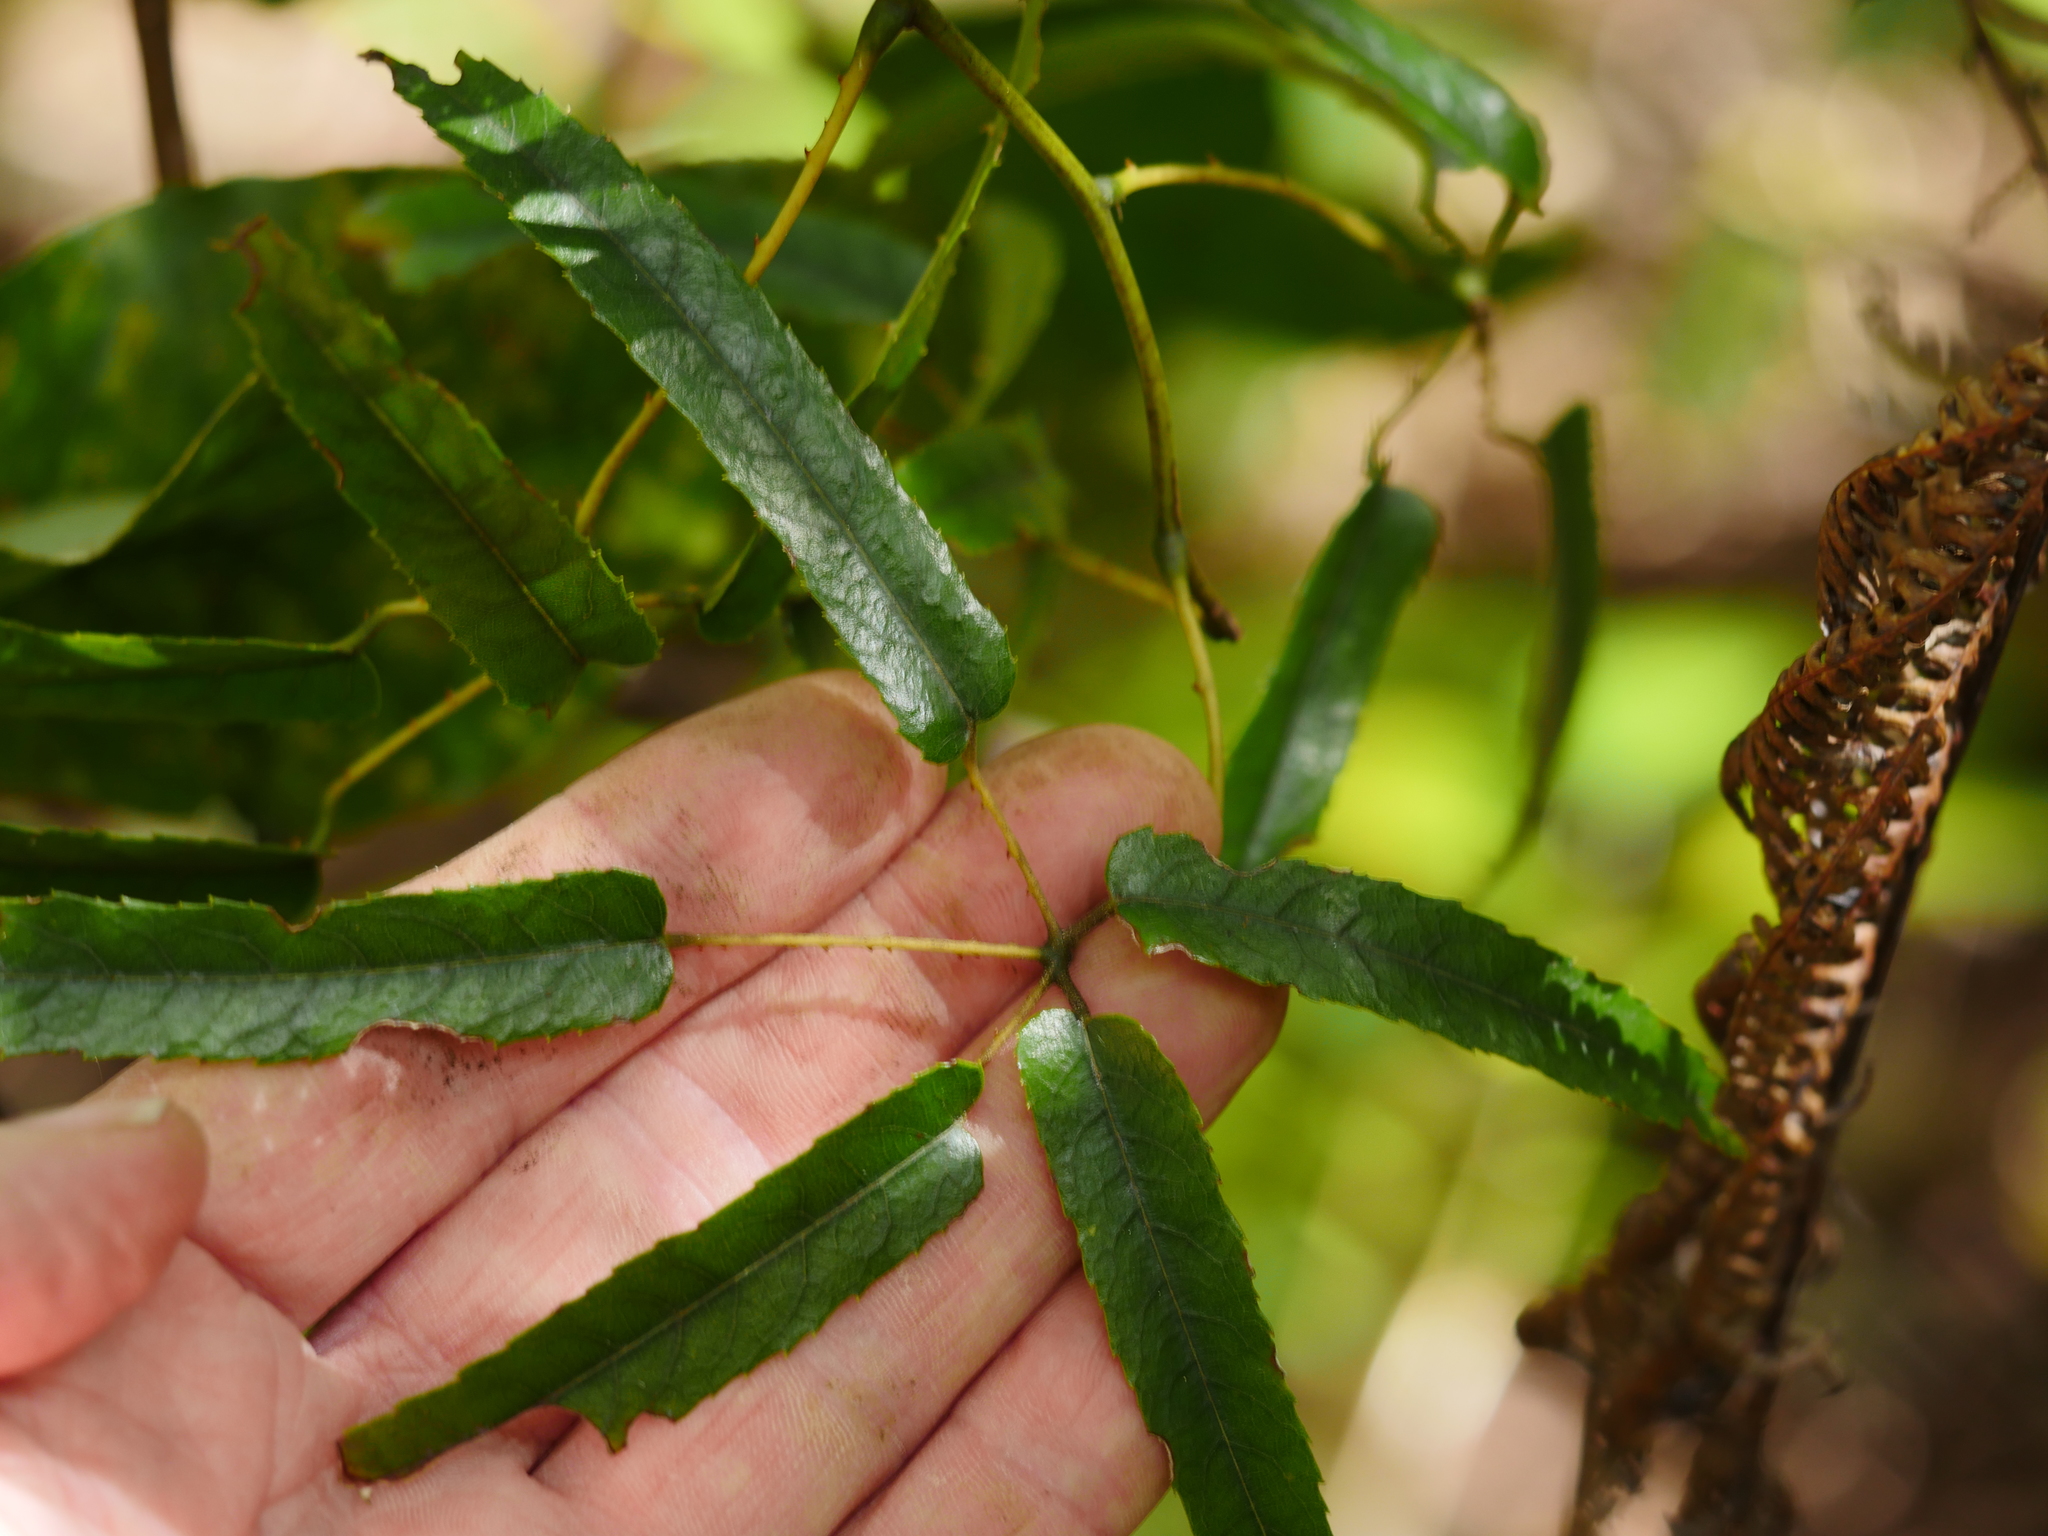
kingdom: Plantae
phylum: Tracheophyta
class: Magnoliopsida
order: Rosales
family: Rosaceae
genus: Rubus
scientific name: Rubus cissoides
